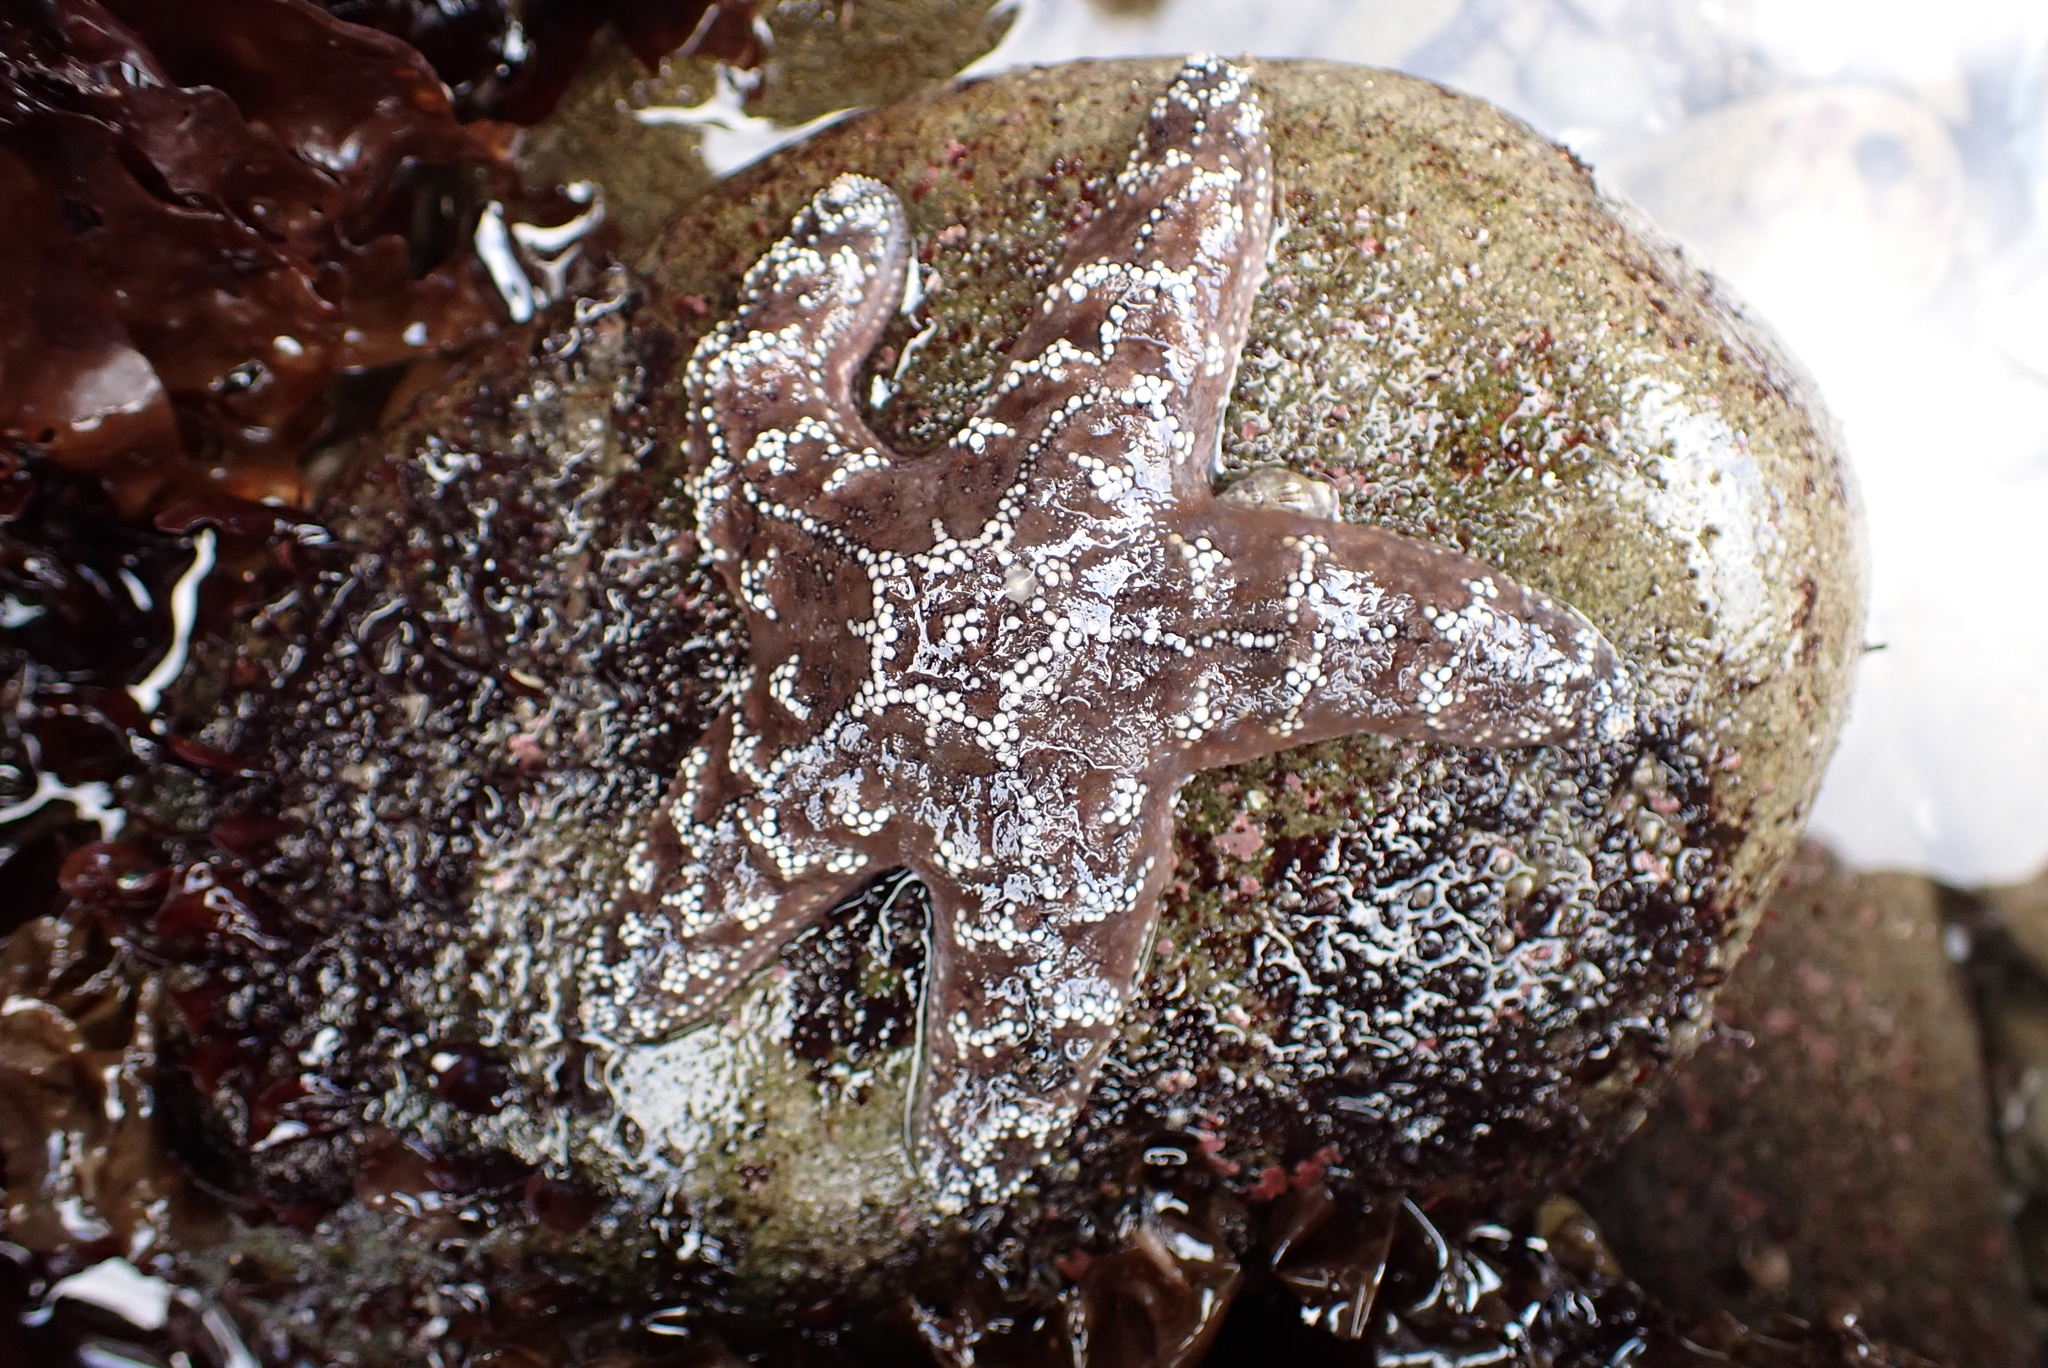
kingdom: Animalia
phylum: Echinodermata
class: Asteroidea
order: Forcipulatida
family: Asteriidae
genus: Pisaster
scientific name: Pisaster ochraceus
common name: Ochre stars
